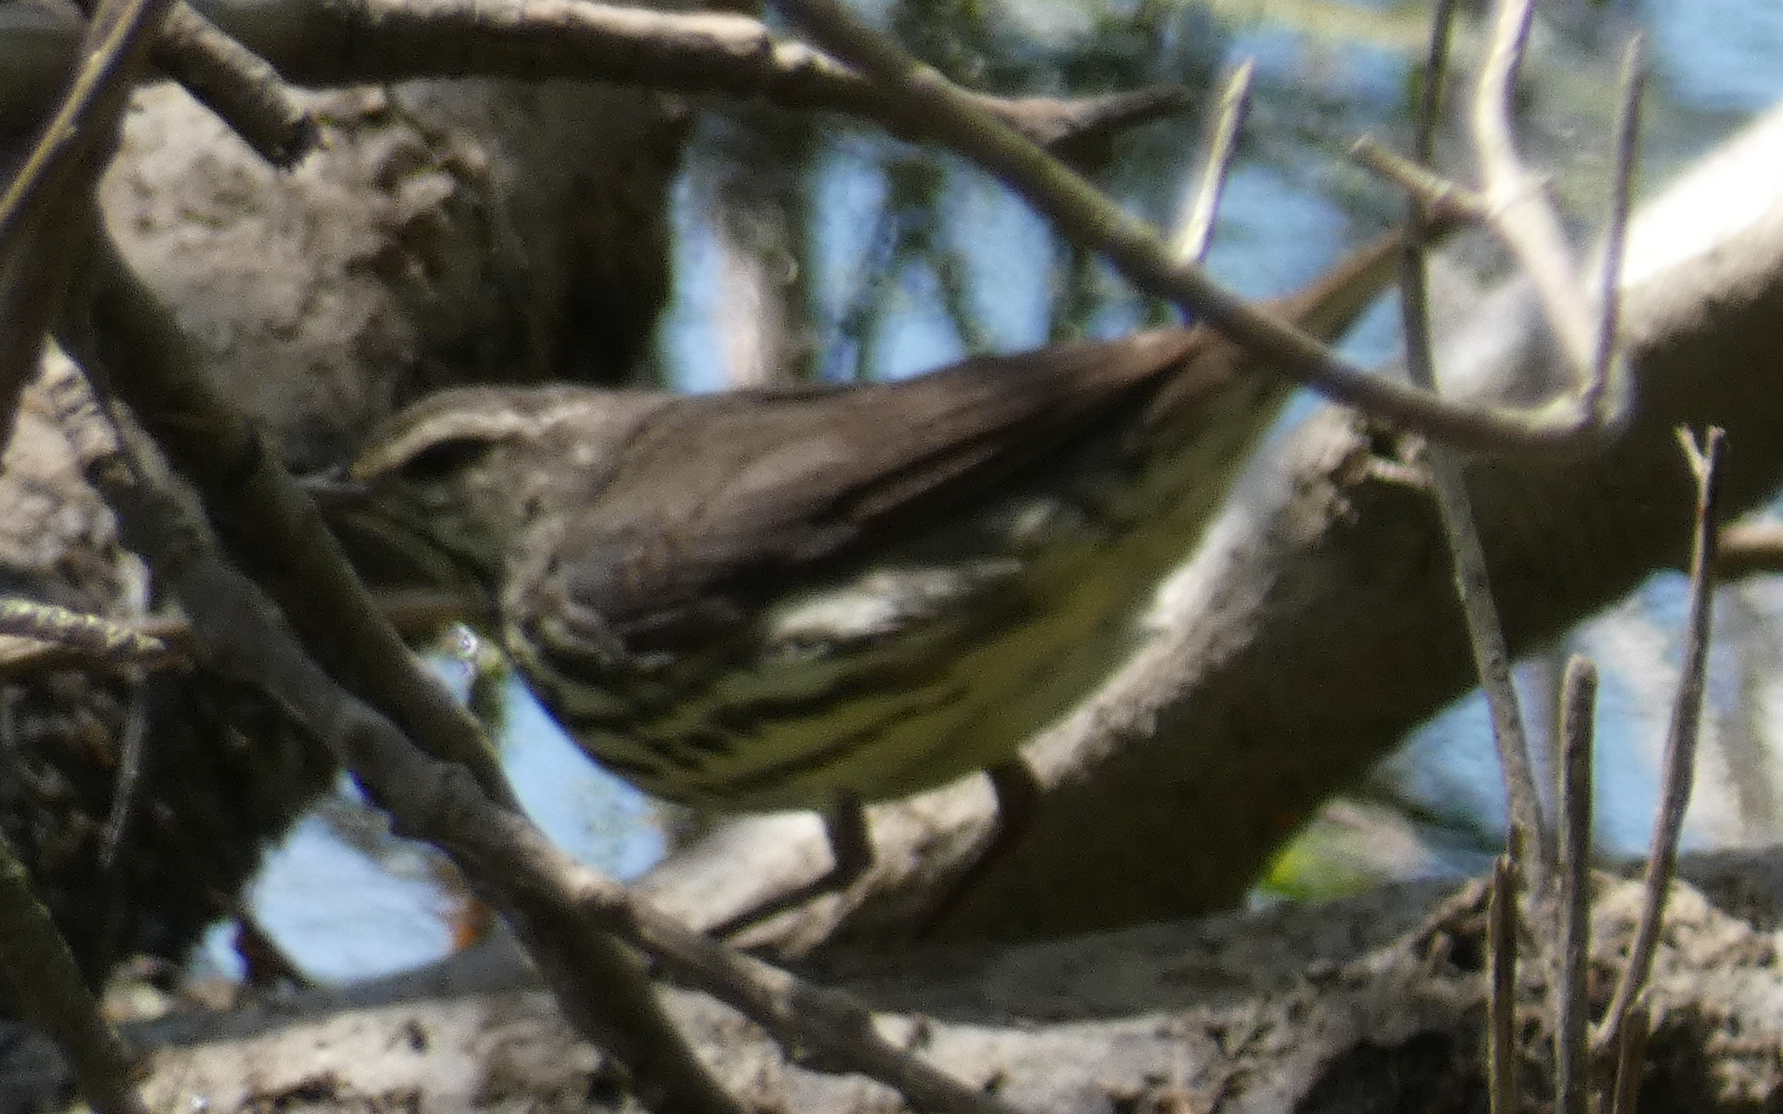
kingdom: Animalia
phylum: Chordata
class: Aves
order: Passeriformes
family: Parulidae
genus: Parkesia
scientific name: Parkesia noveboracensis
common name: Northern waterthrush
